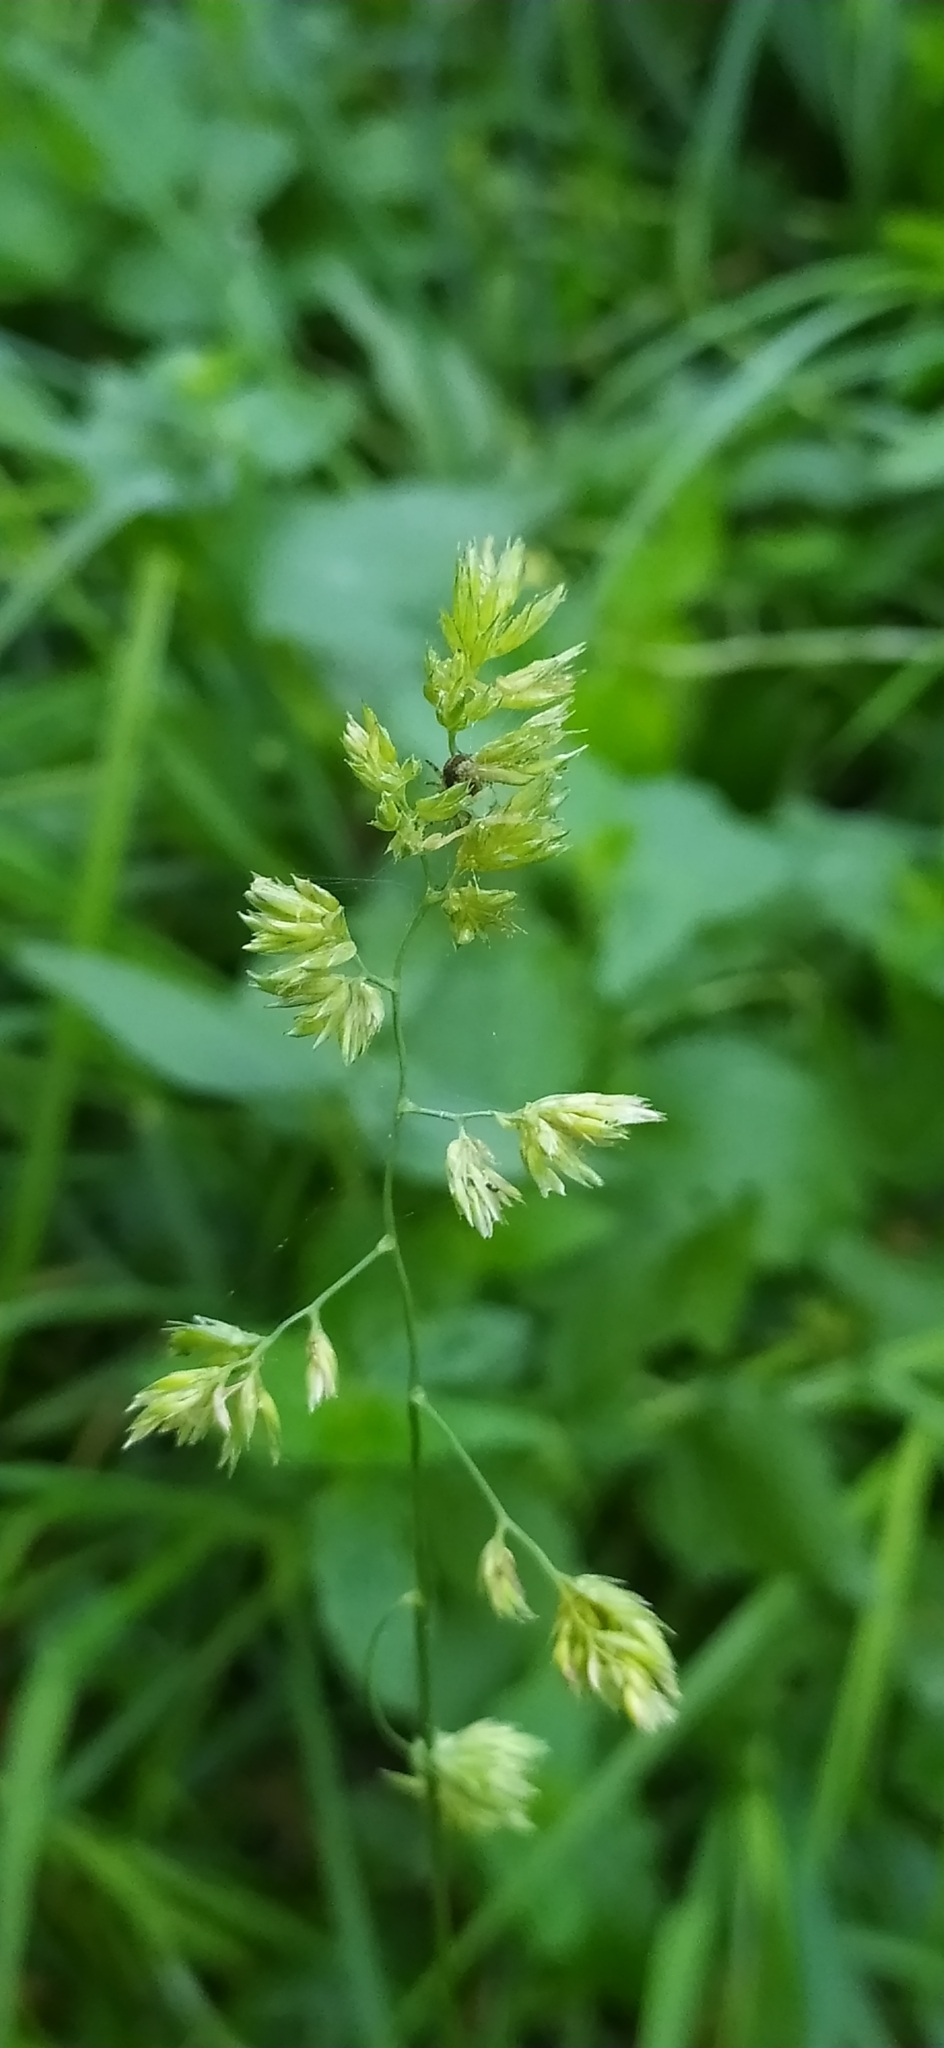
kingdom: Plantae
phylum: Tracheophyta
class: Liliopsida
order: Poales
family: Poaceae
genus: Dactylis
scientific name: Dactylis glomerata
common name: Orchardgrass
